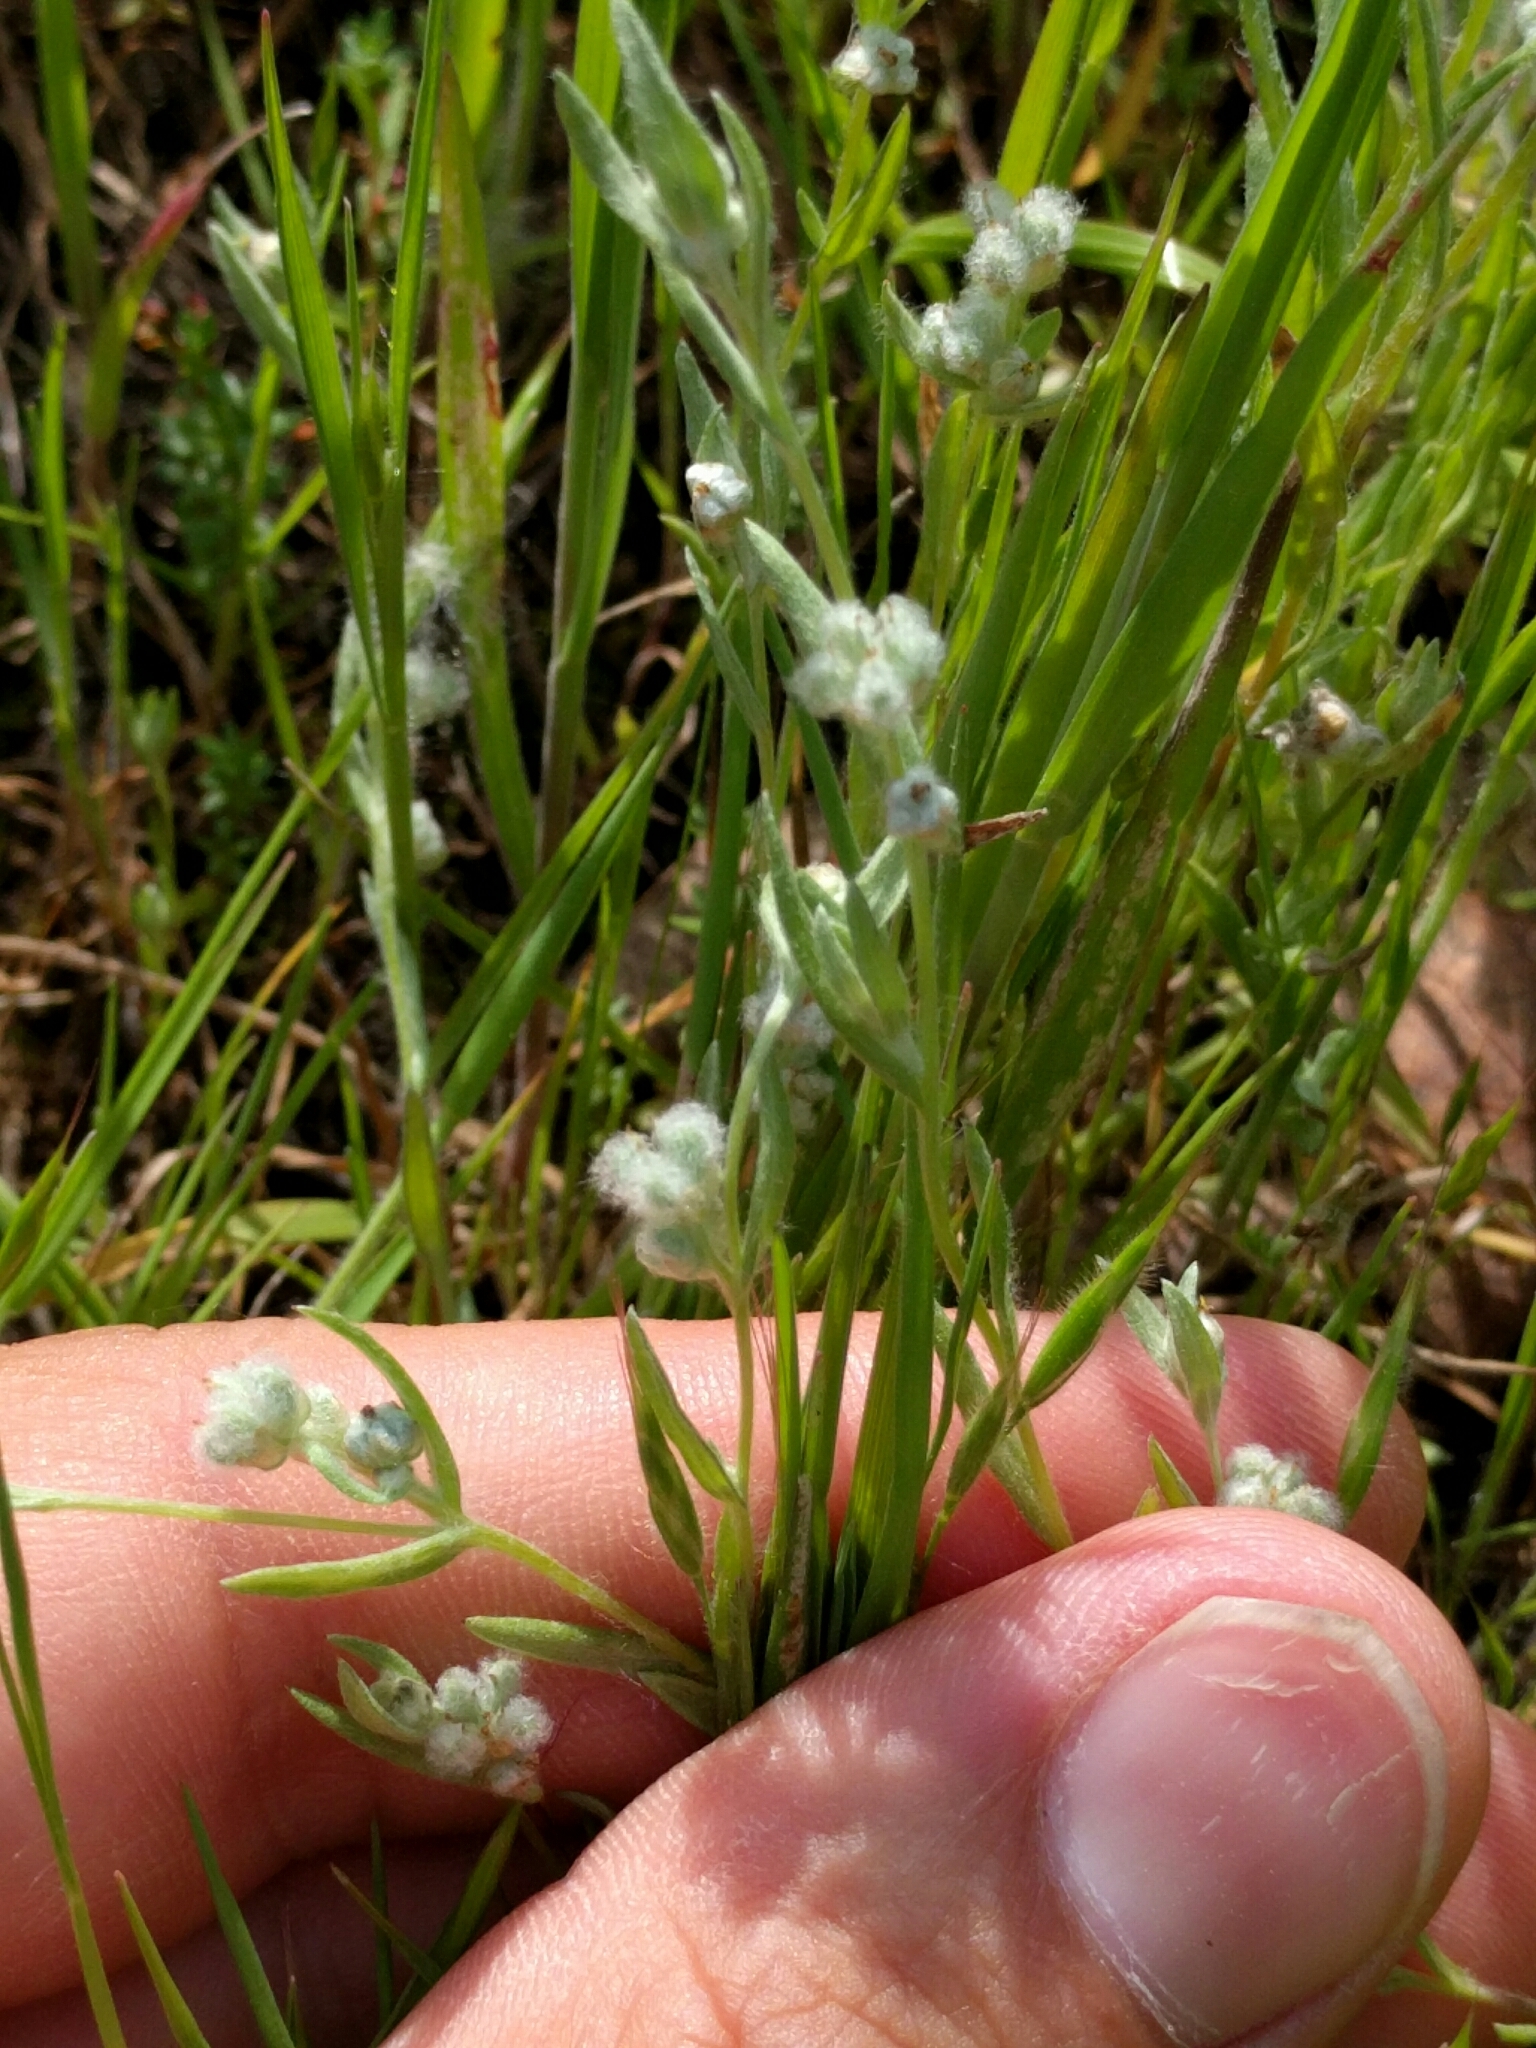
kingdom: Plantae
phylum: Tracheophyta
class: Magnoliopsida
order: Asterales
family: Asteraceae
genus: Bombycilaena
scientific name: Bombycilaena californica
